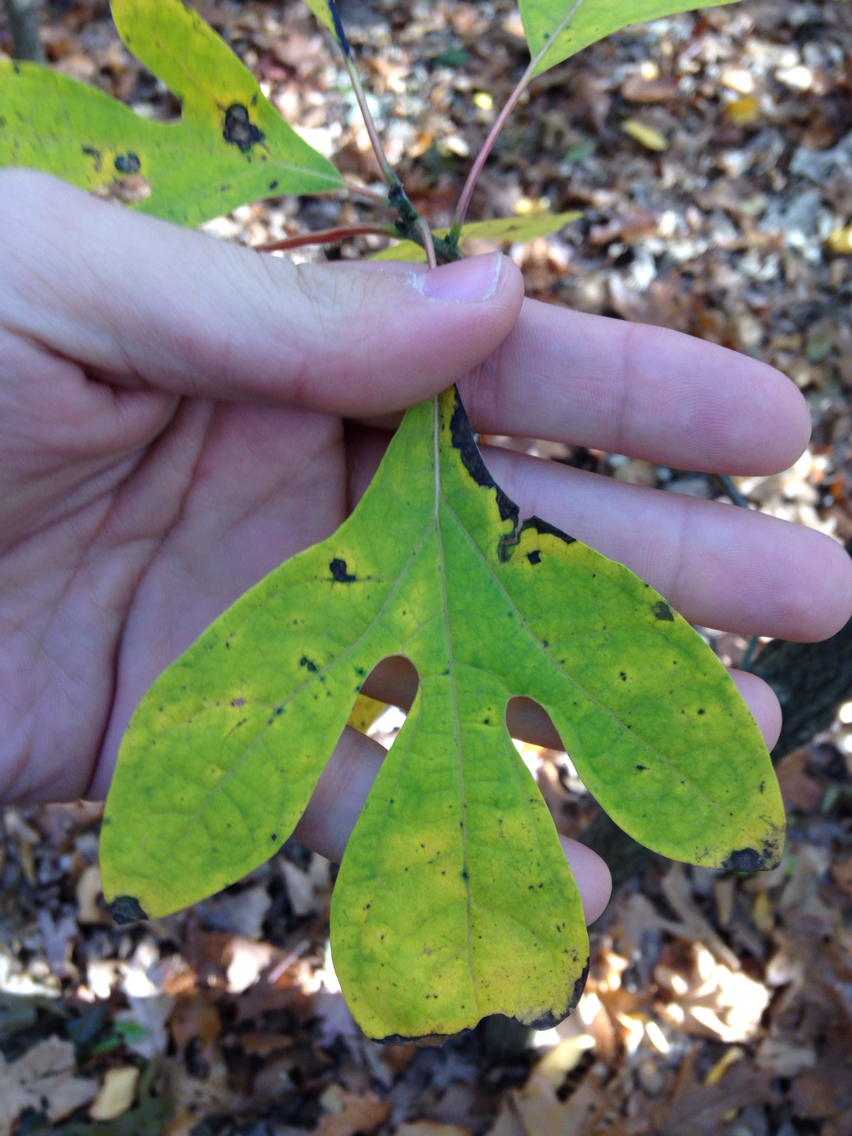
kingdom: Plantae
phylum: Tracheophyta
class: Magnoliopsida
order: Laurales
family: Lauraceae
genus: Sassafras
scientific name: Sassafras albidum
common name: Sassafras
